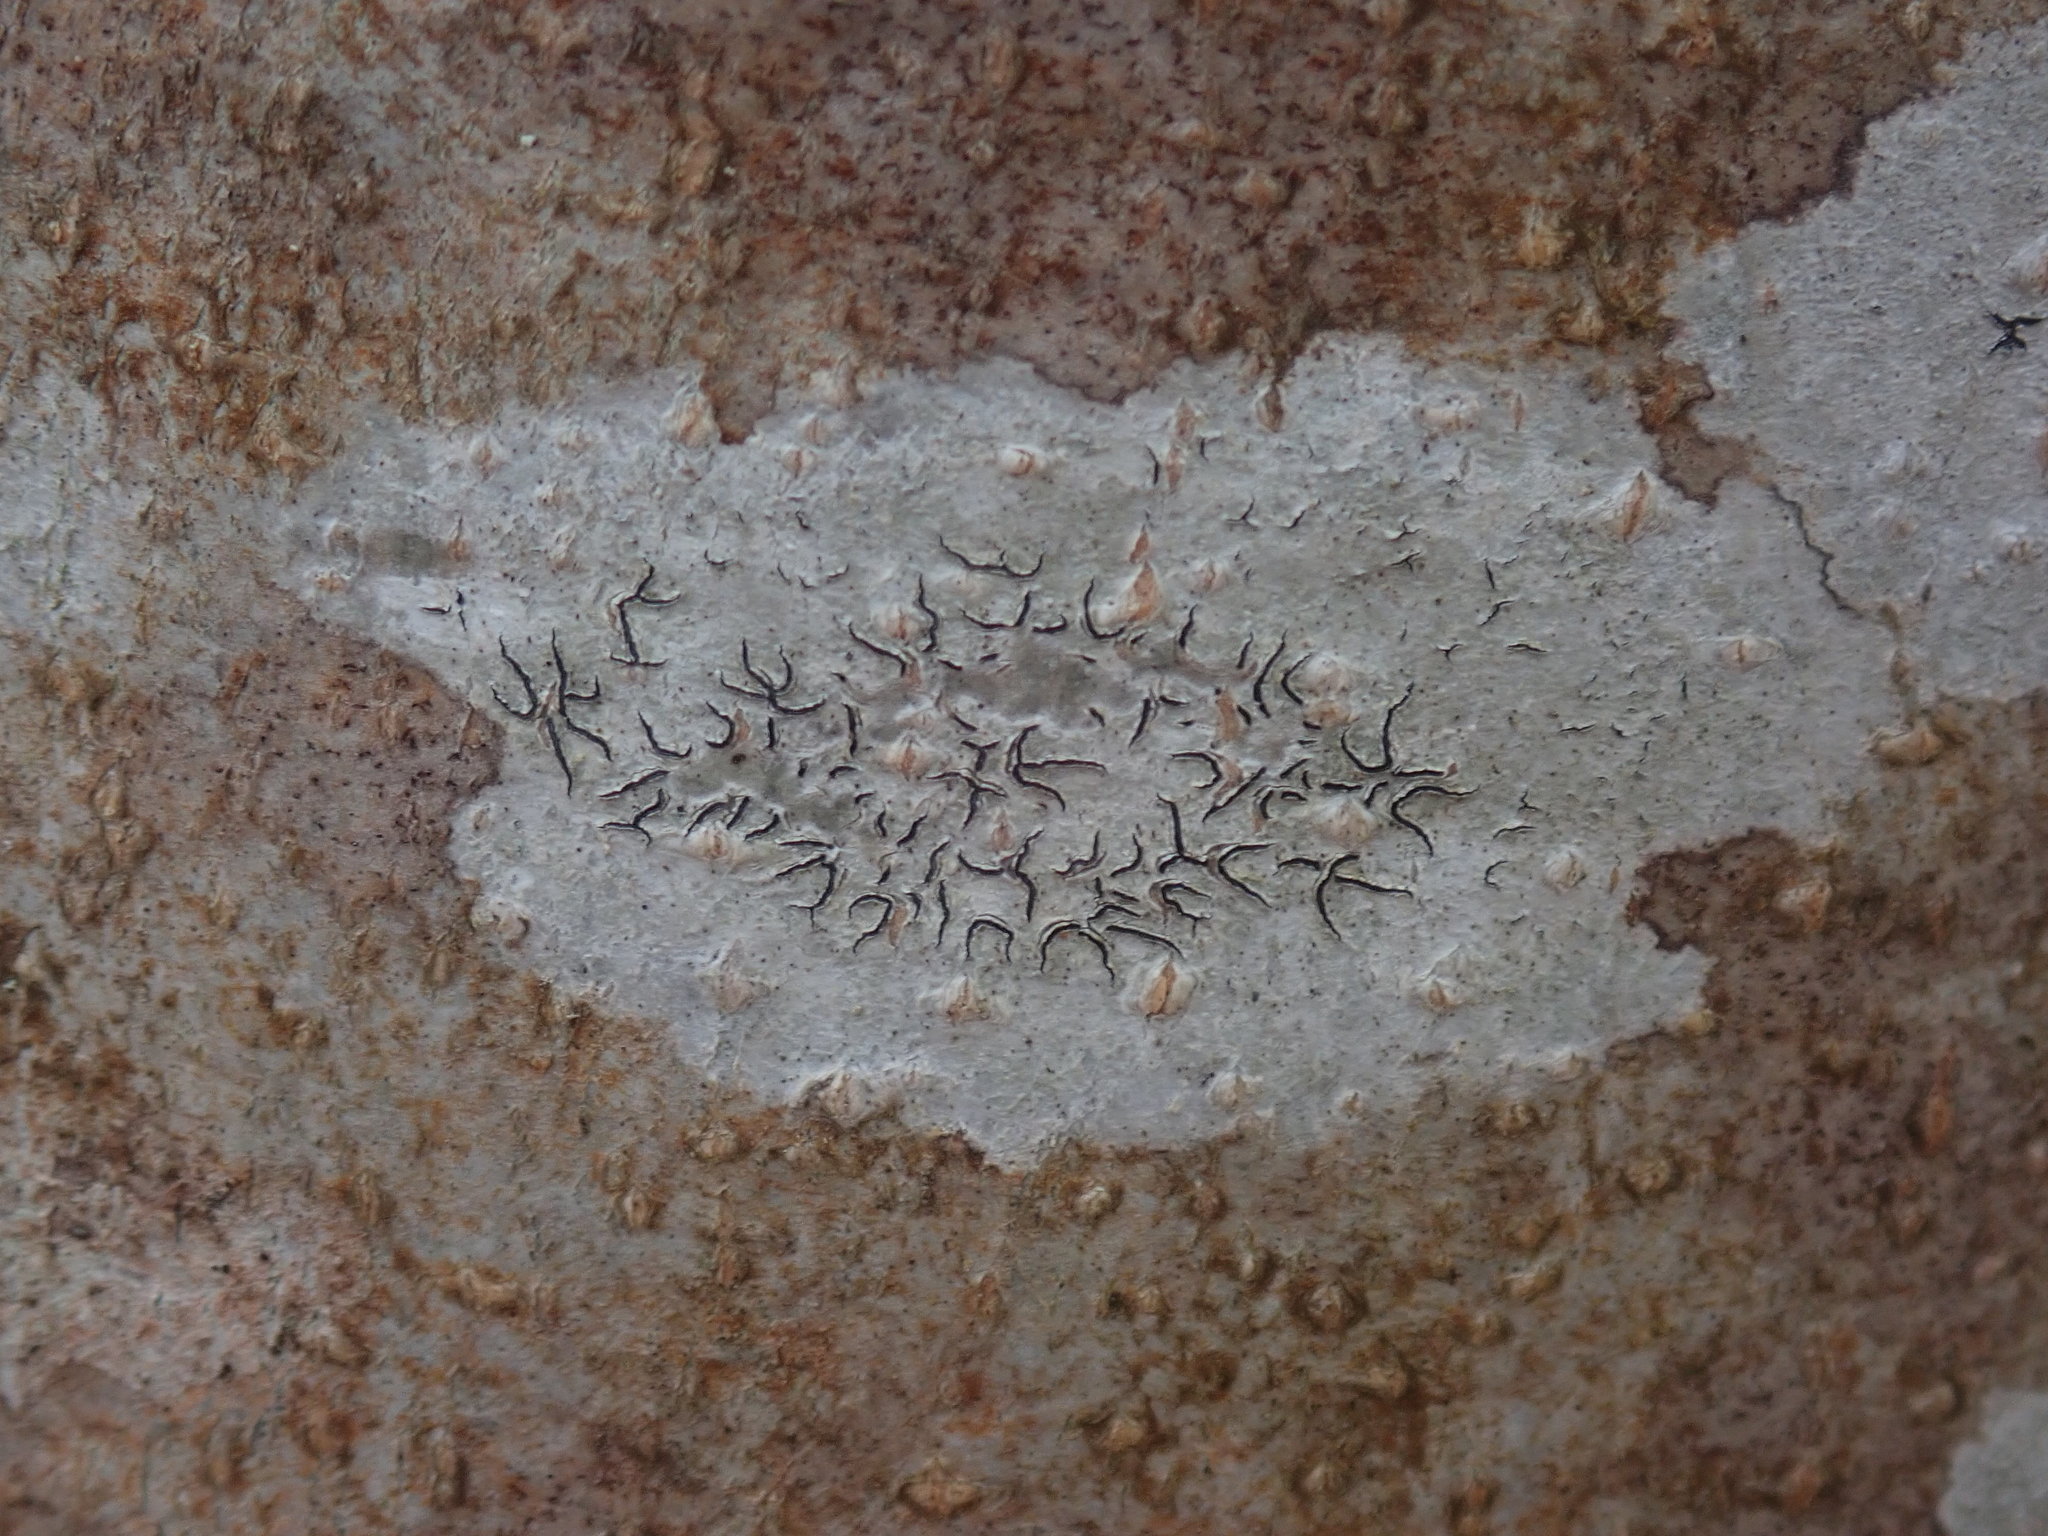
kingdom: Fungi
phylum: Ascomycota
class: Lecanoromycetes
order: Ostropales
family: Graphidaceae
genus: Graphis
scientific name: Graphis scripta
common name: Script lichen
